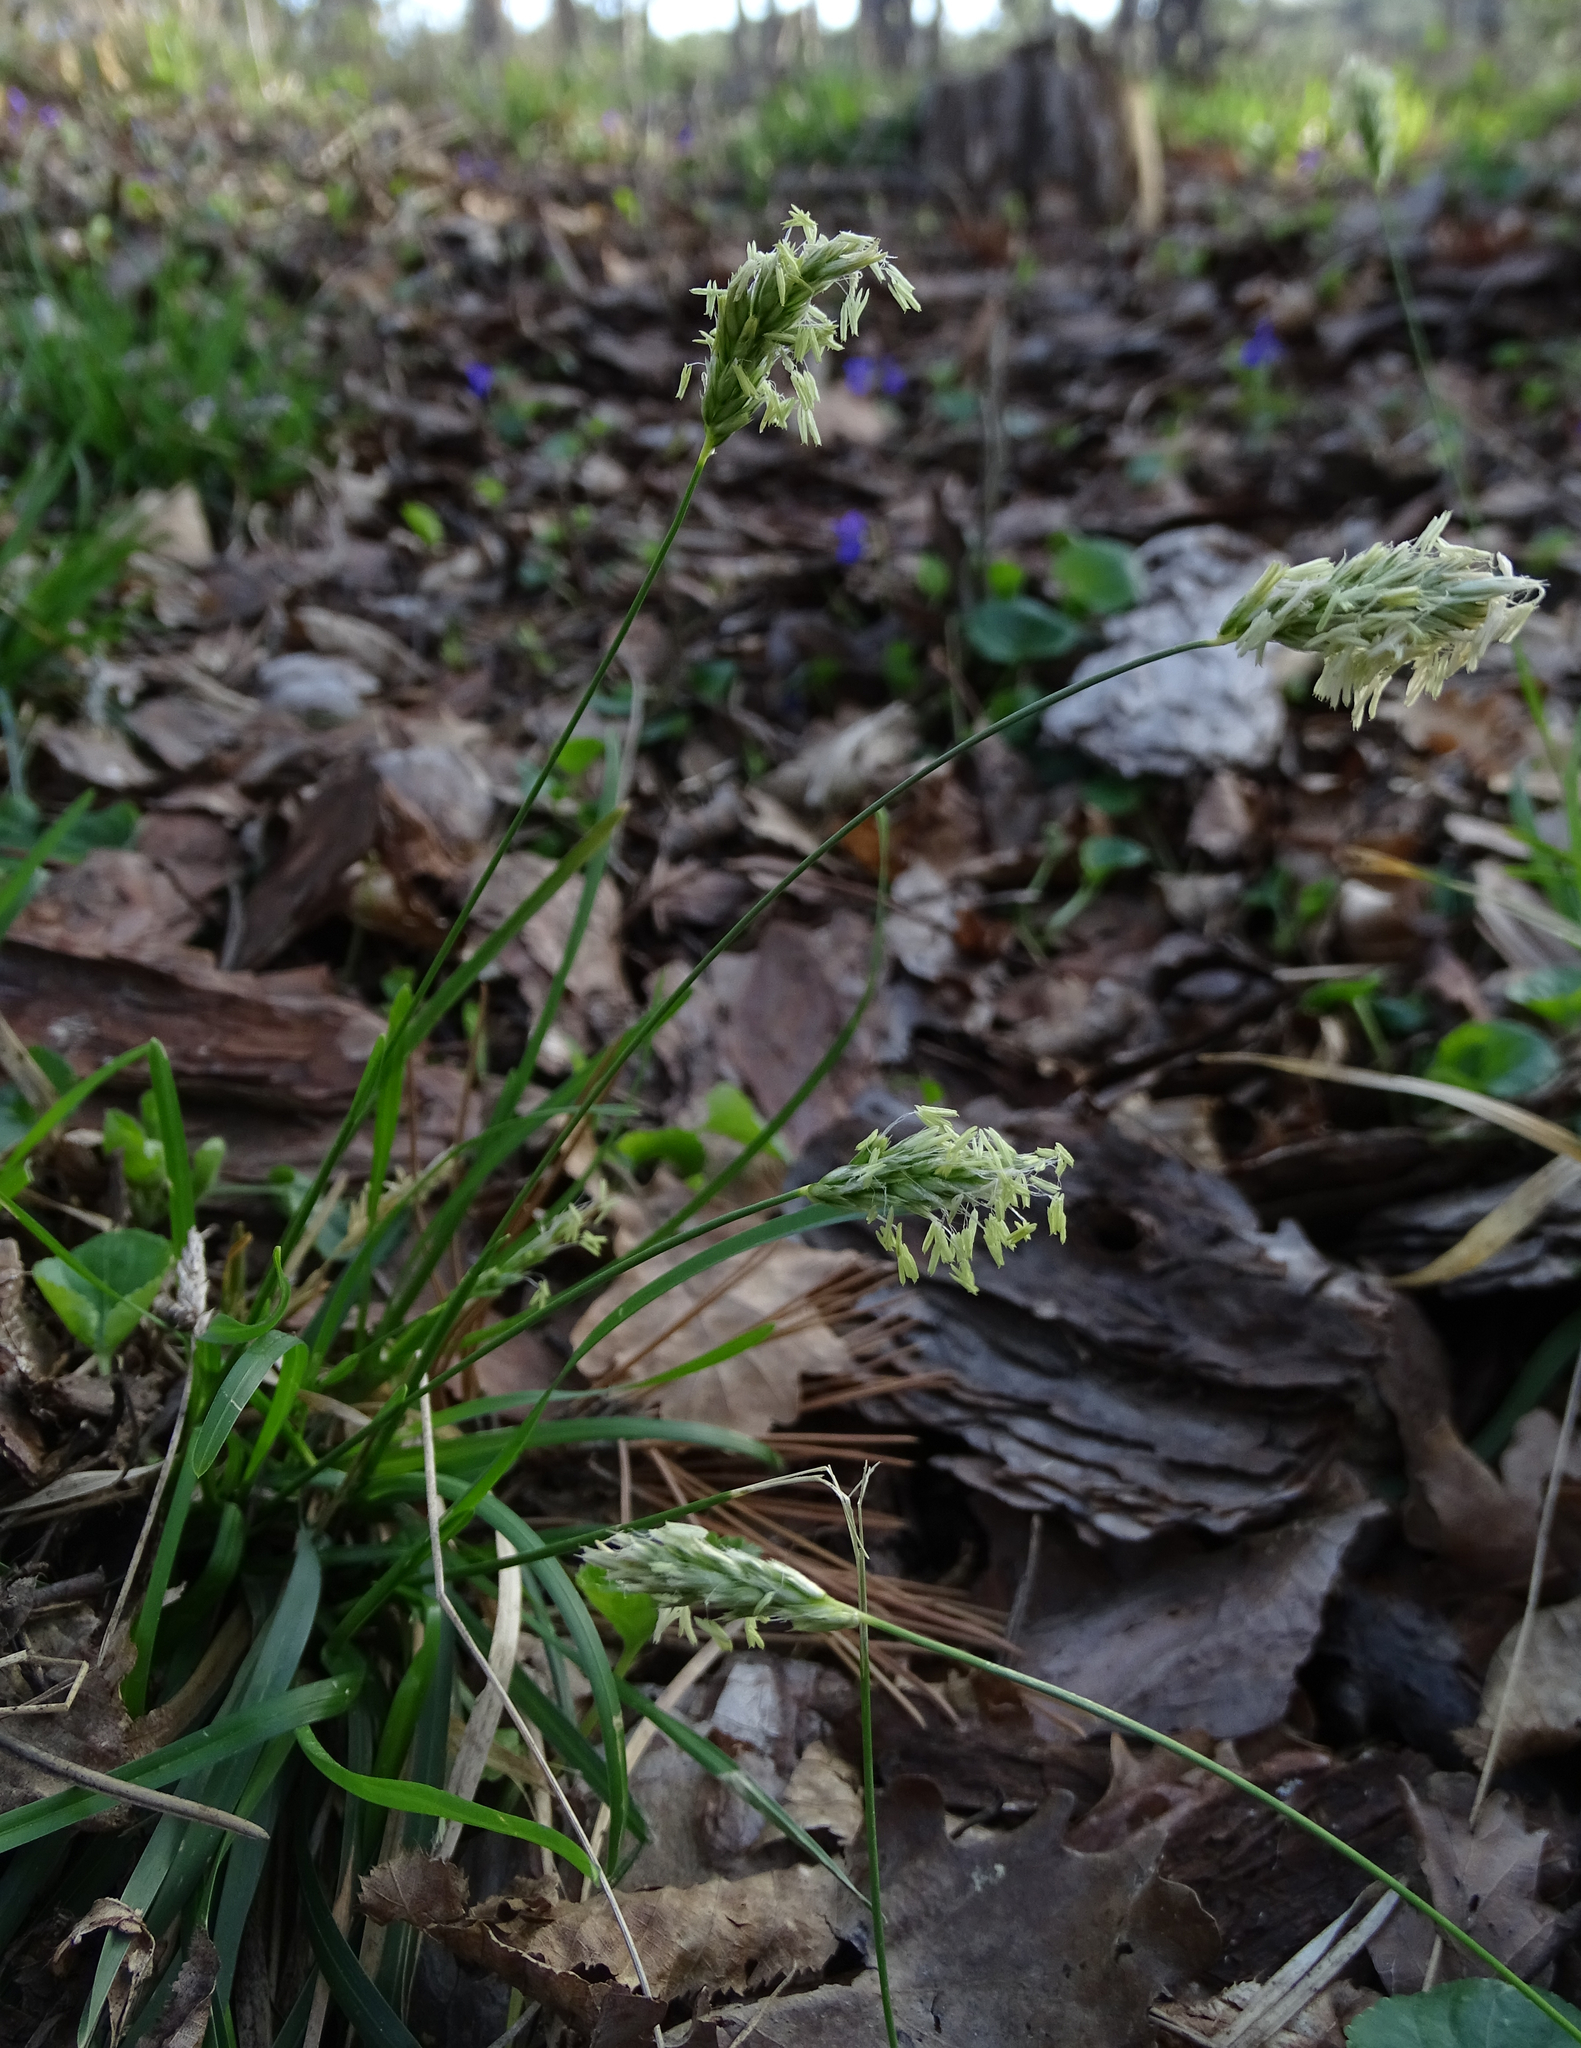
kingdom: Plantae
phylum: Tracheophyta
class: Liliopsida
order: Poales
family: Poaceae
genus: Sesleria
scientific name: Sesleria caerulea
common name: Blue moor-grass
